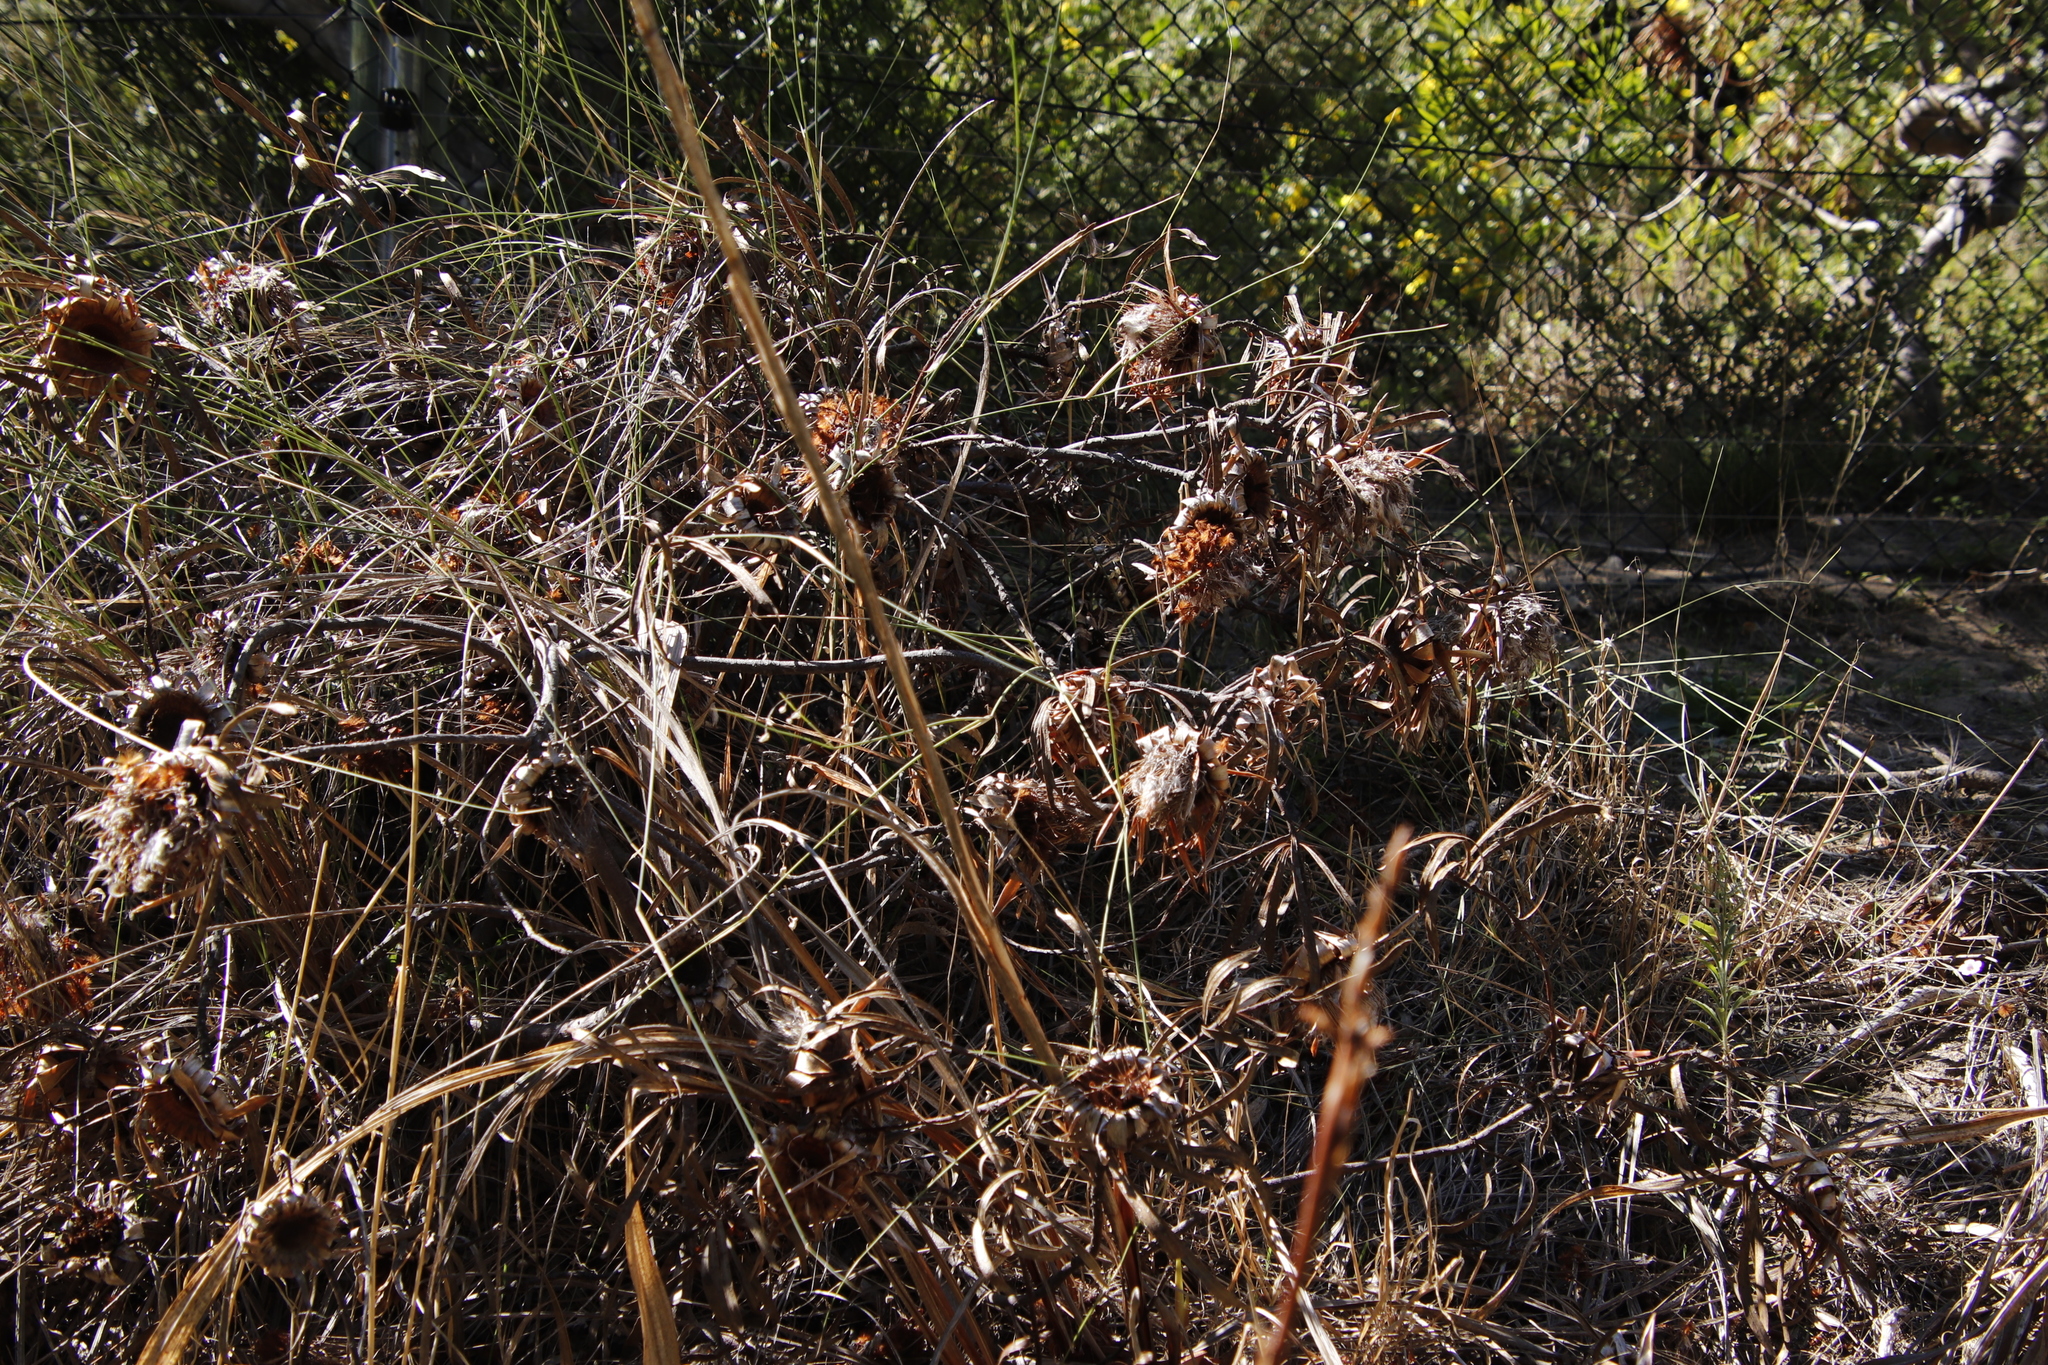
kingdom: Plantae
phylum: Tracheophyta
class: Magnoliopsida
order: Proteales
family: Proteaceae
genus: Protea
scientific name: Protea lepidocarpodendron
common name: Black-bearded protea
